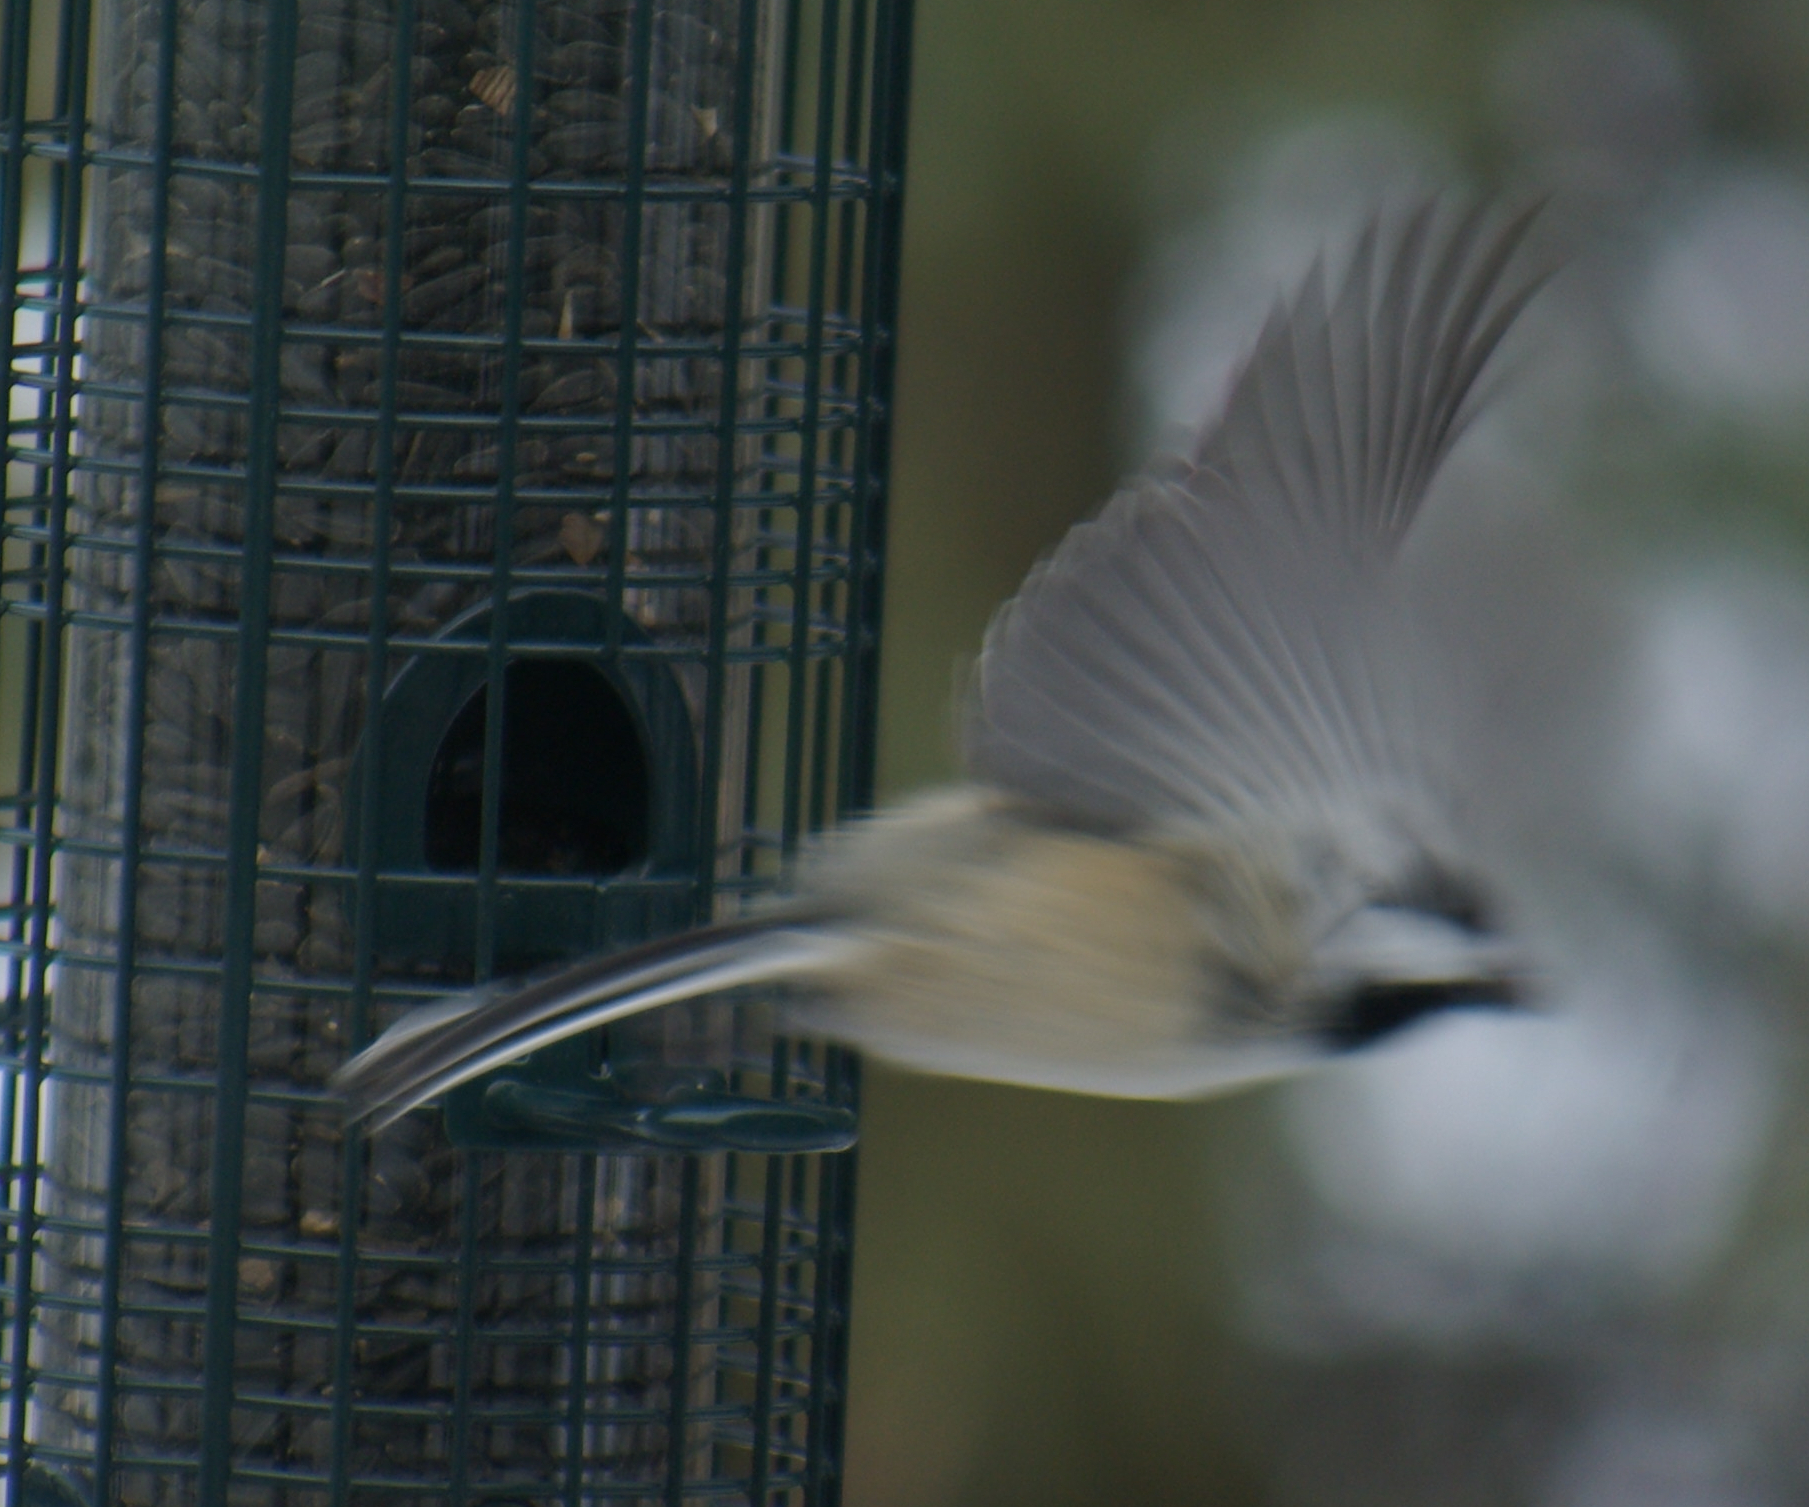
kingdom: Animalia
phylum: Chordata
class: Aves
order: Passeriformes
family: Paridae
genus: Poecile
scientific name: Poecile atricapillus
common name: Black-capped chickadee
